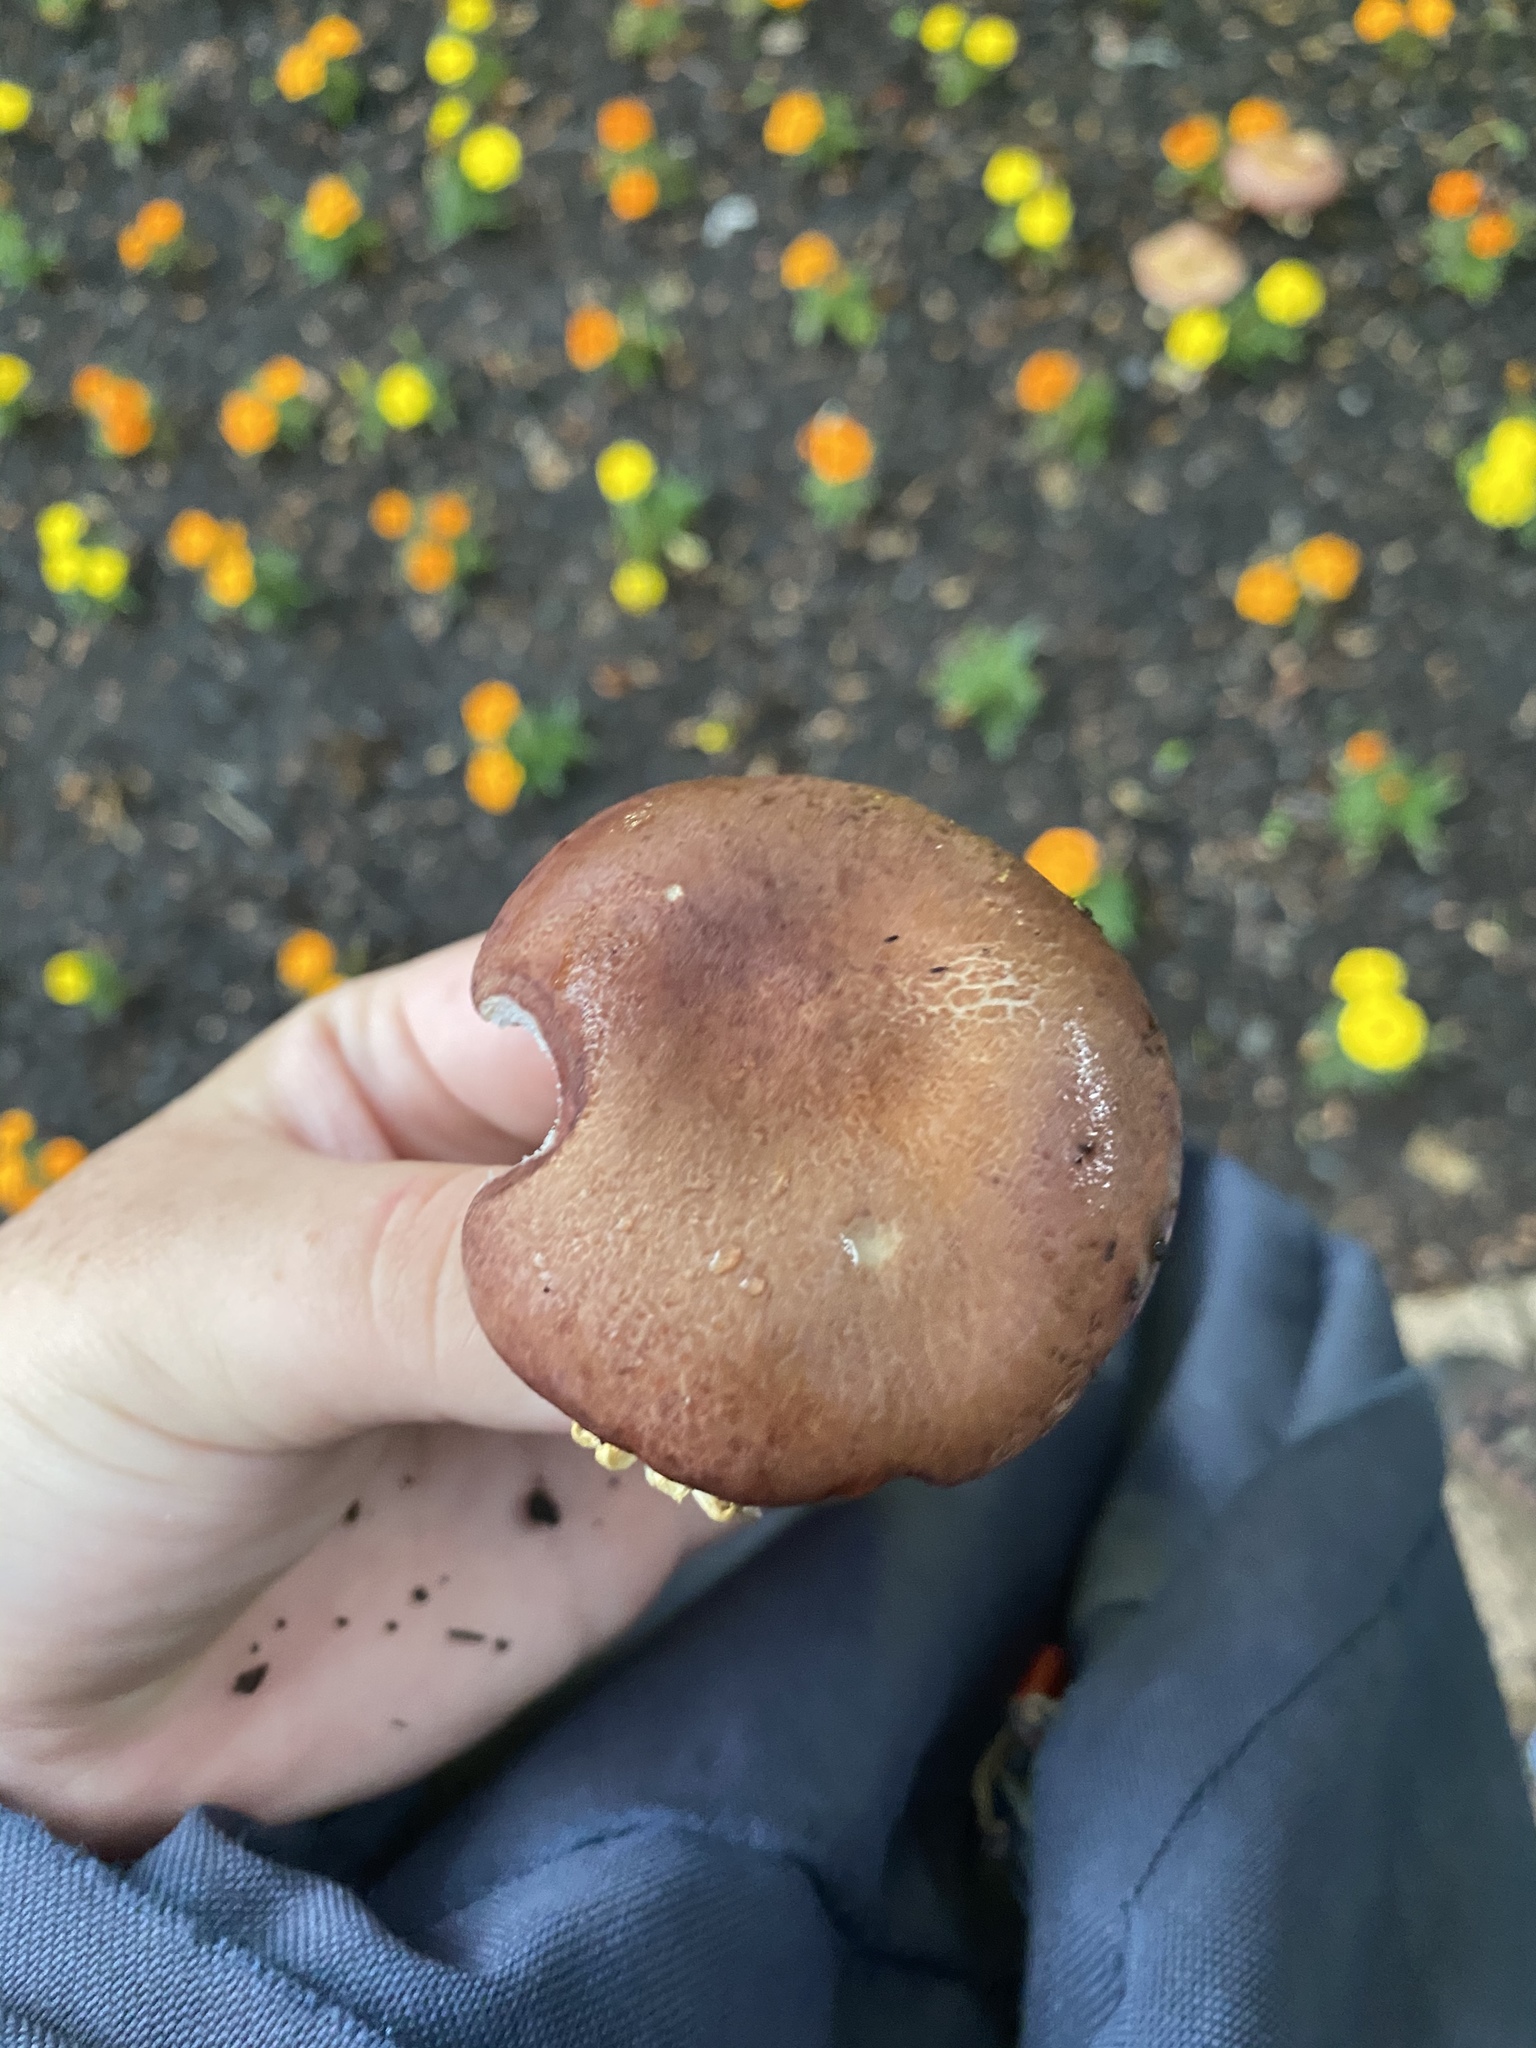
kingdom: Fungi
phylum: Basidiomycota
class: Agaricomycetes
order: Agaricales
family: Strophariaceae
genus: Stropharia
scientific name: Stropharia rugosoannulata
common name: Wine roundhead
